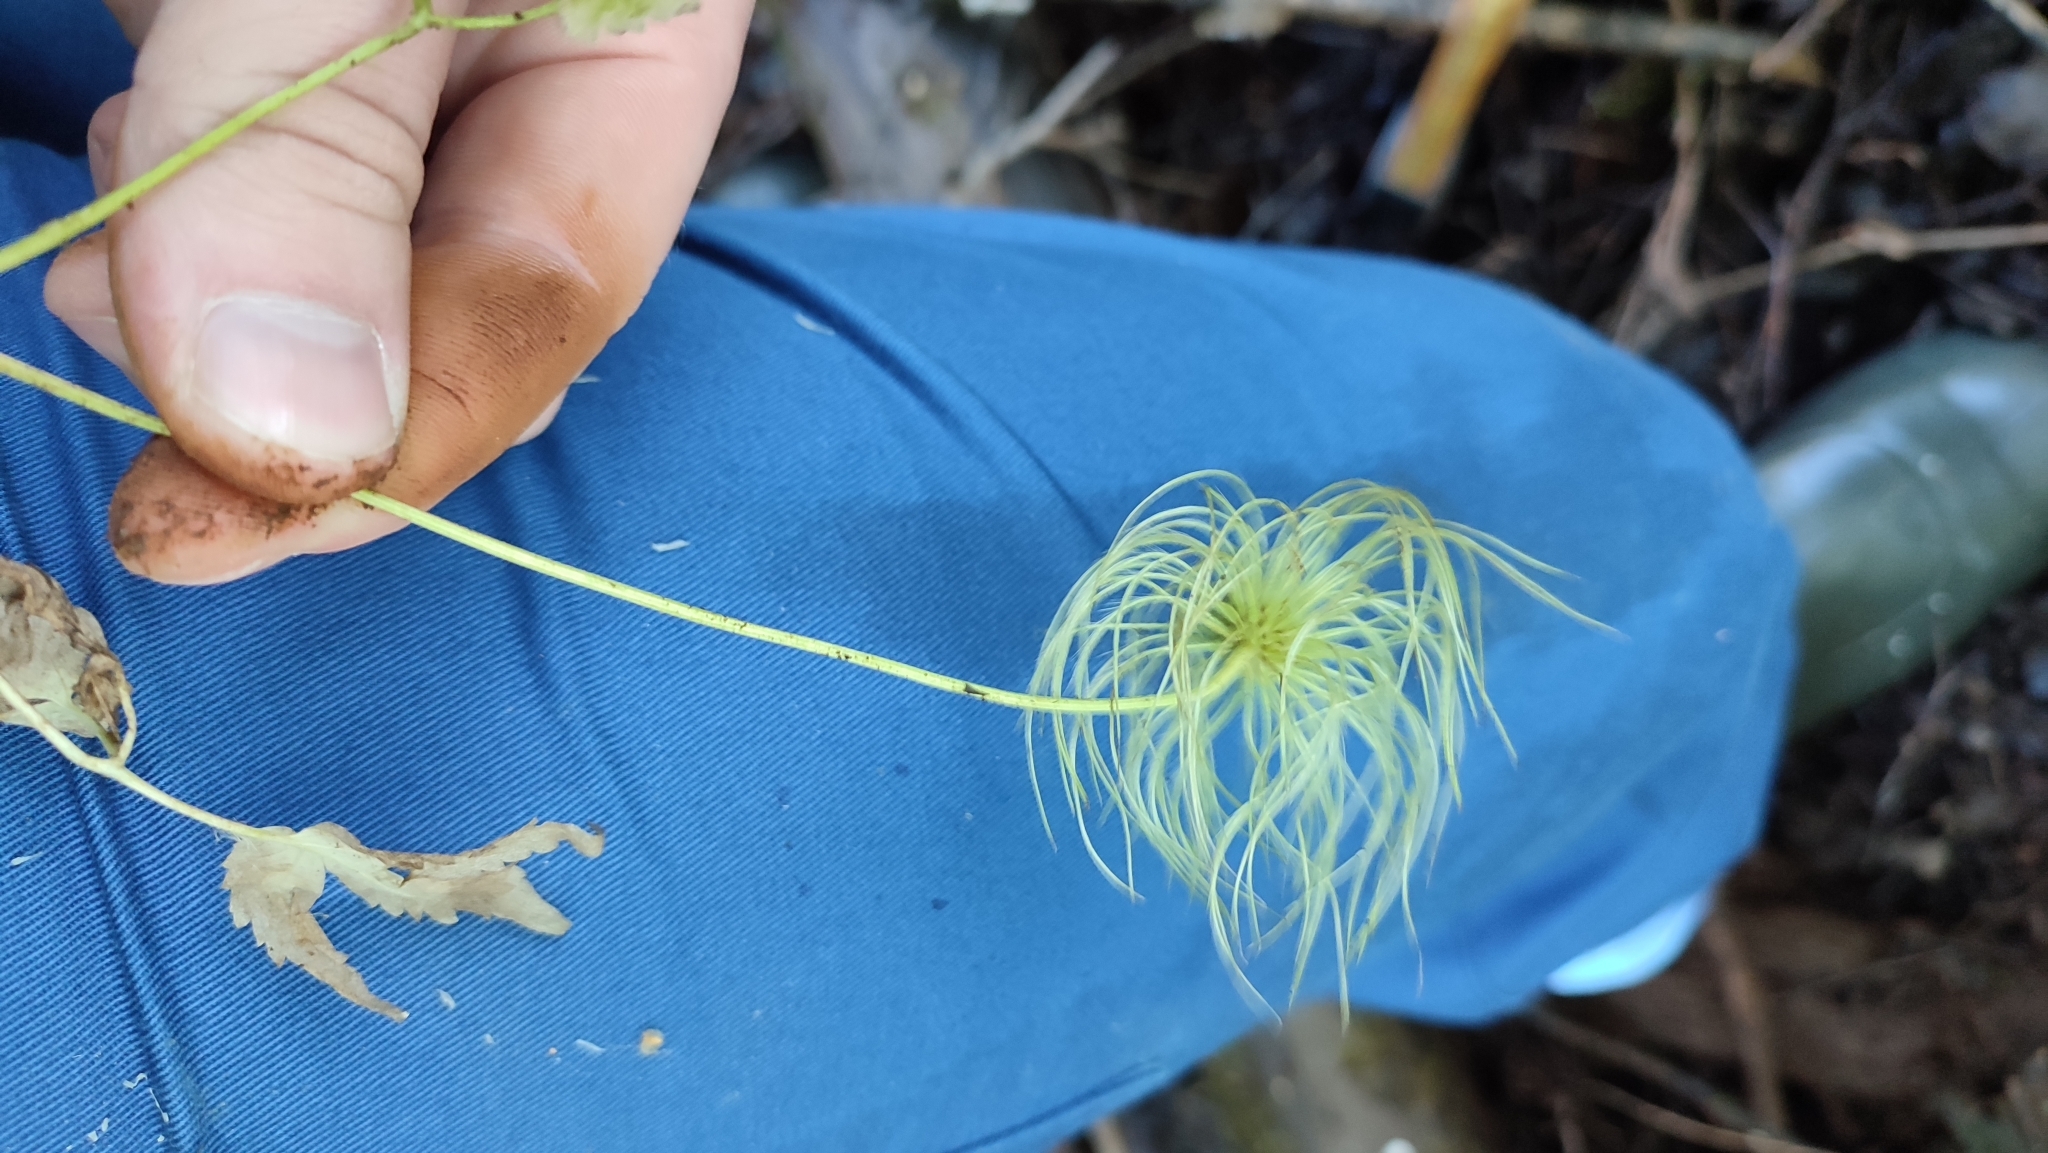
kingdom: Plantae
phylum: Tracheophyta
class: Magnoliopsida
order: Ranunculales
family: Ranunculaceae
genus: Clematis
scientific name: Clematis sibirica
